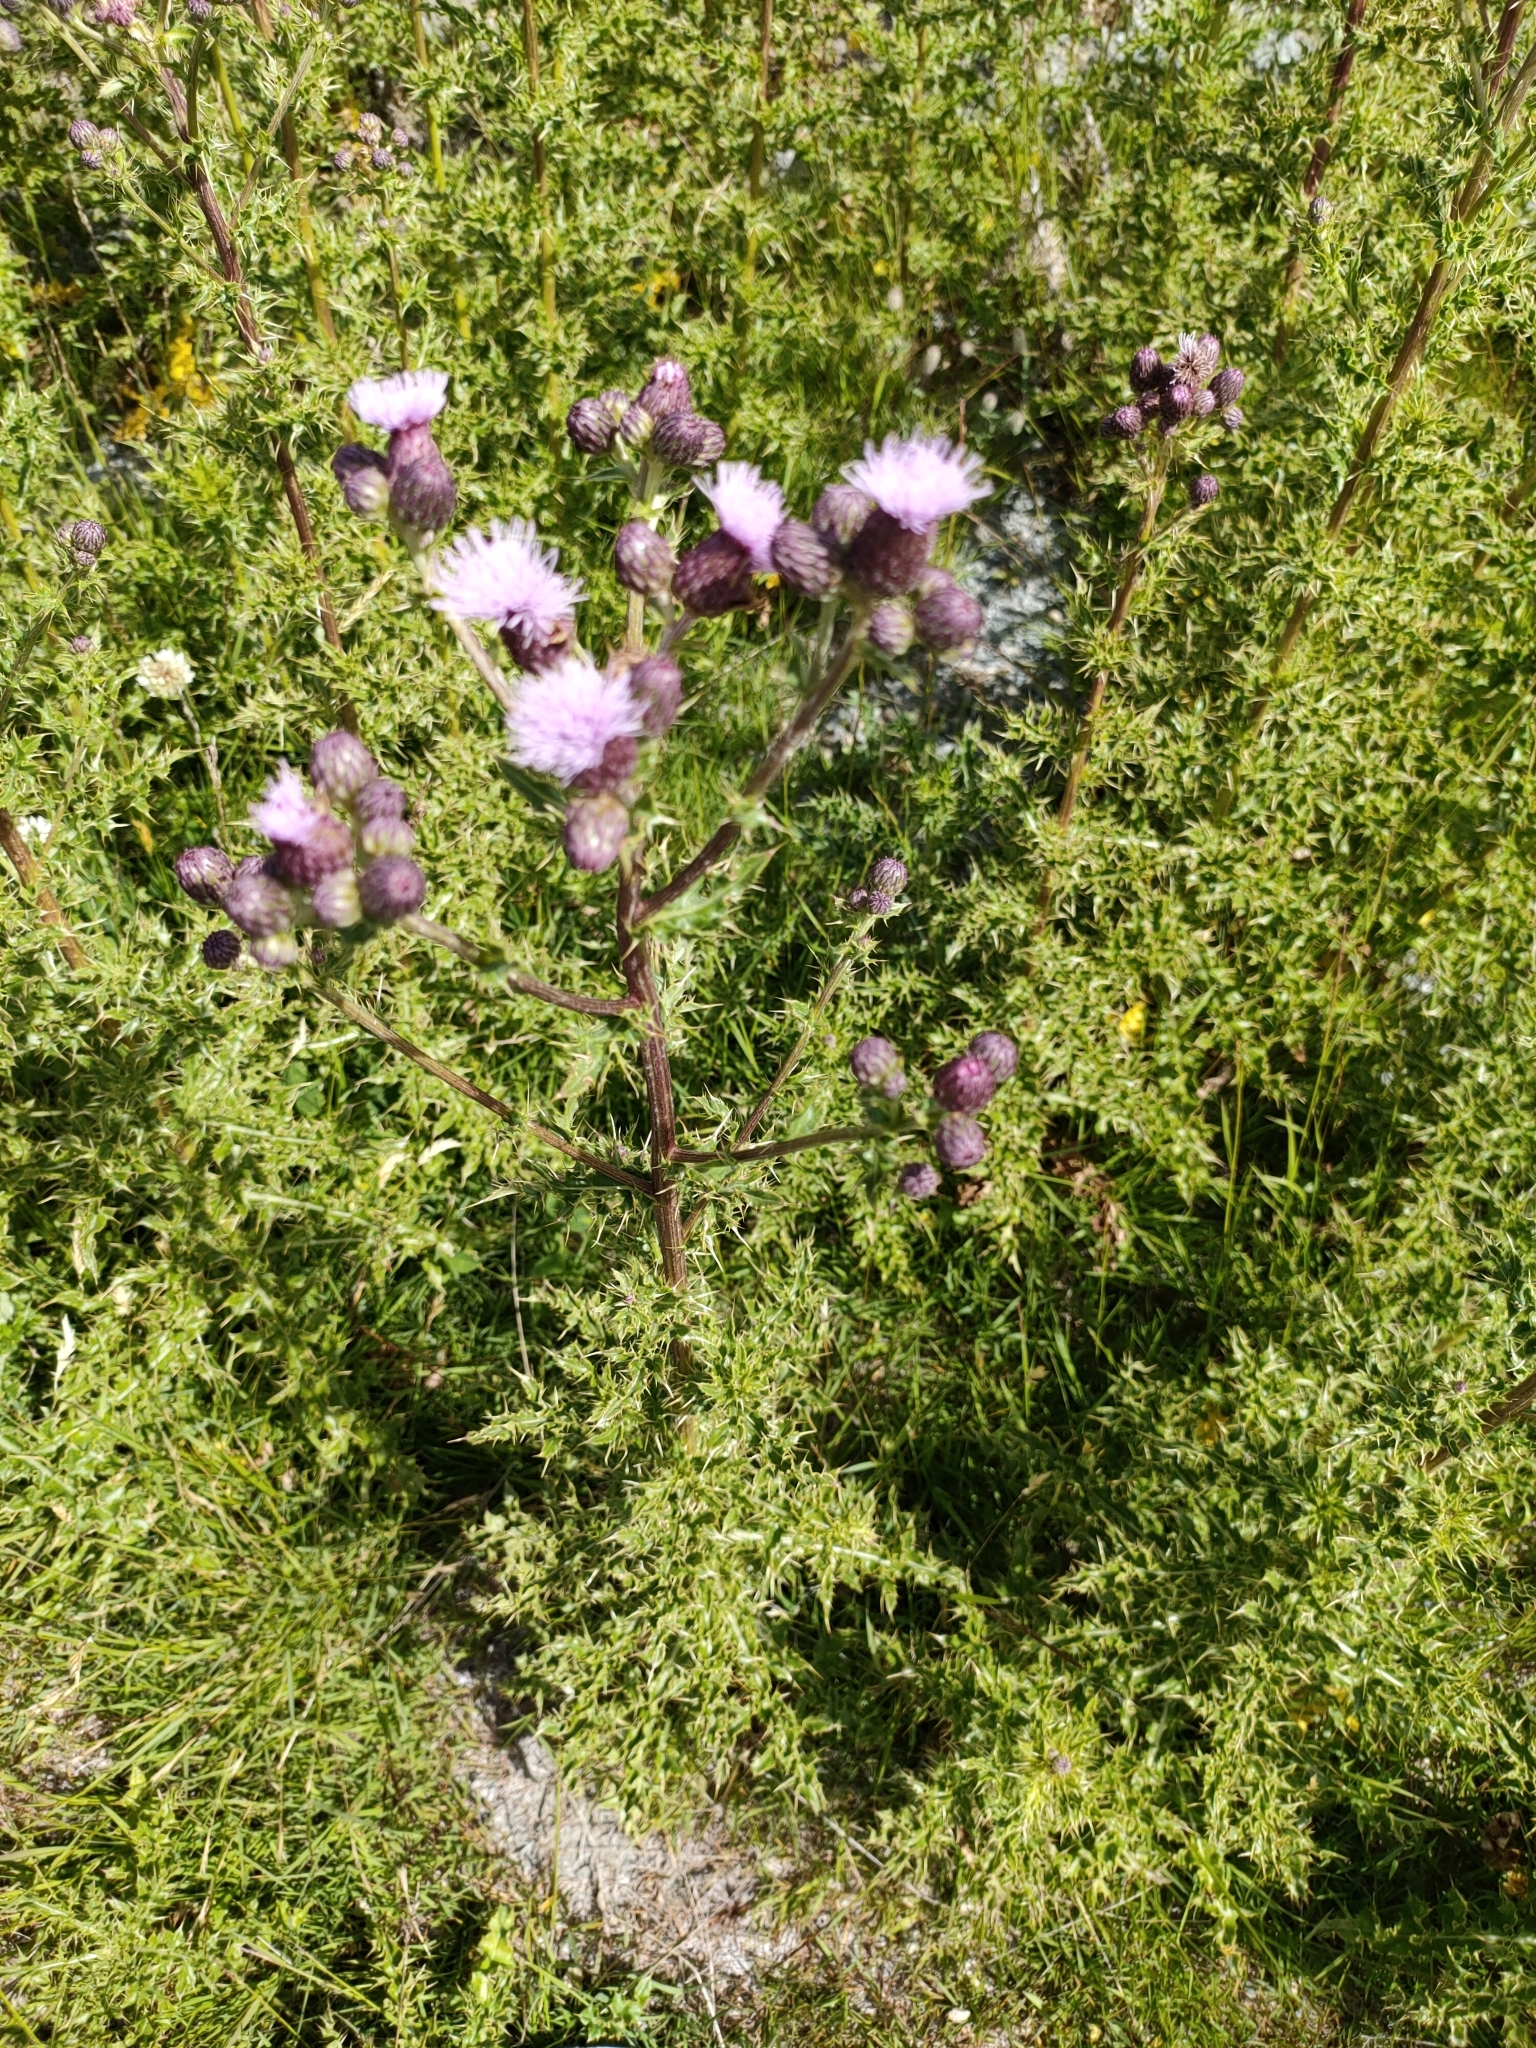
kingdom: Plantae
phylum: Tracheophyta
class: Magnoliopsida
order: Asterales
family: Asteraceae
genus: Cirsium
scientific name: Cirsium arvense
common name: Creeping thistle
